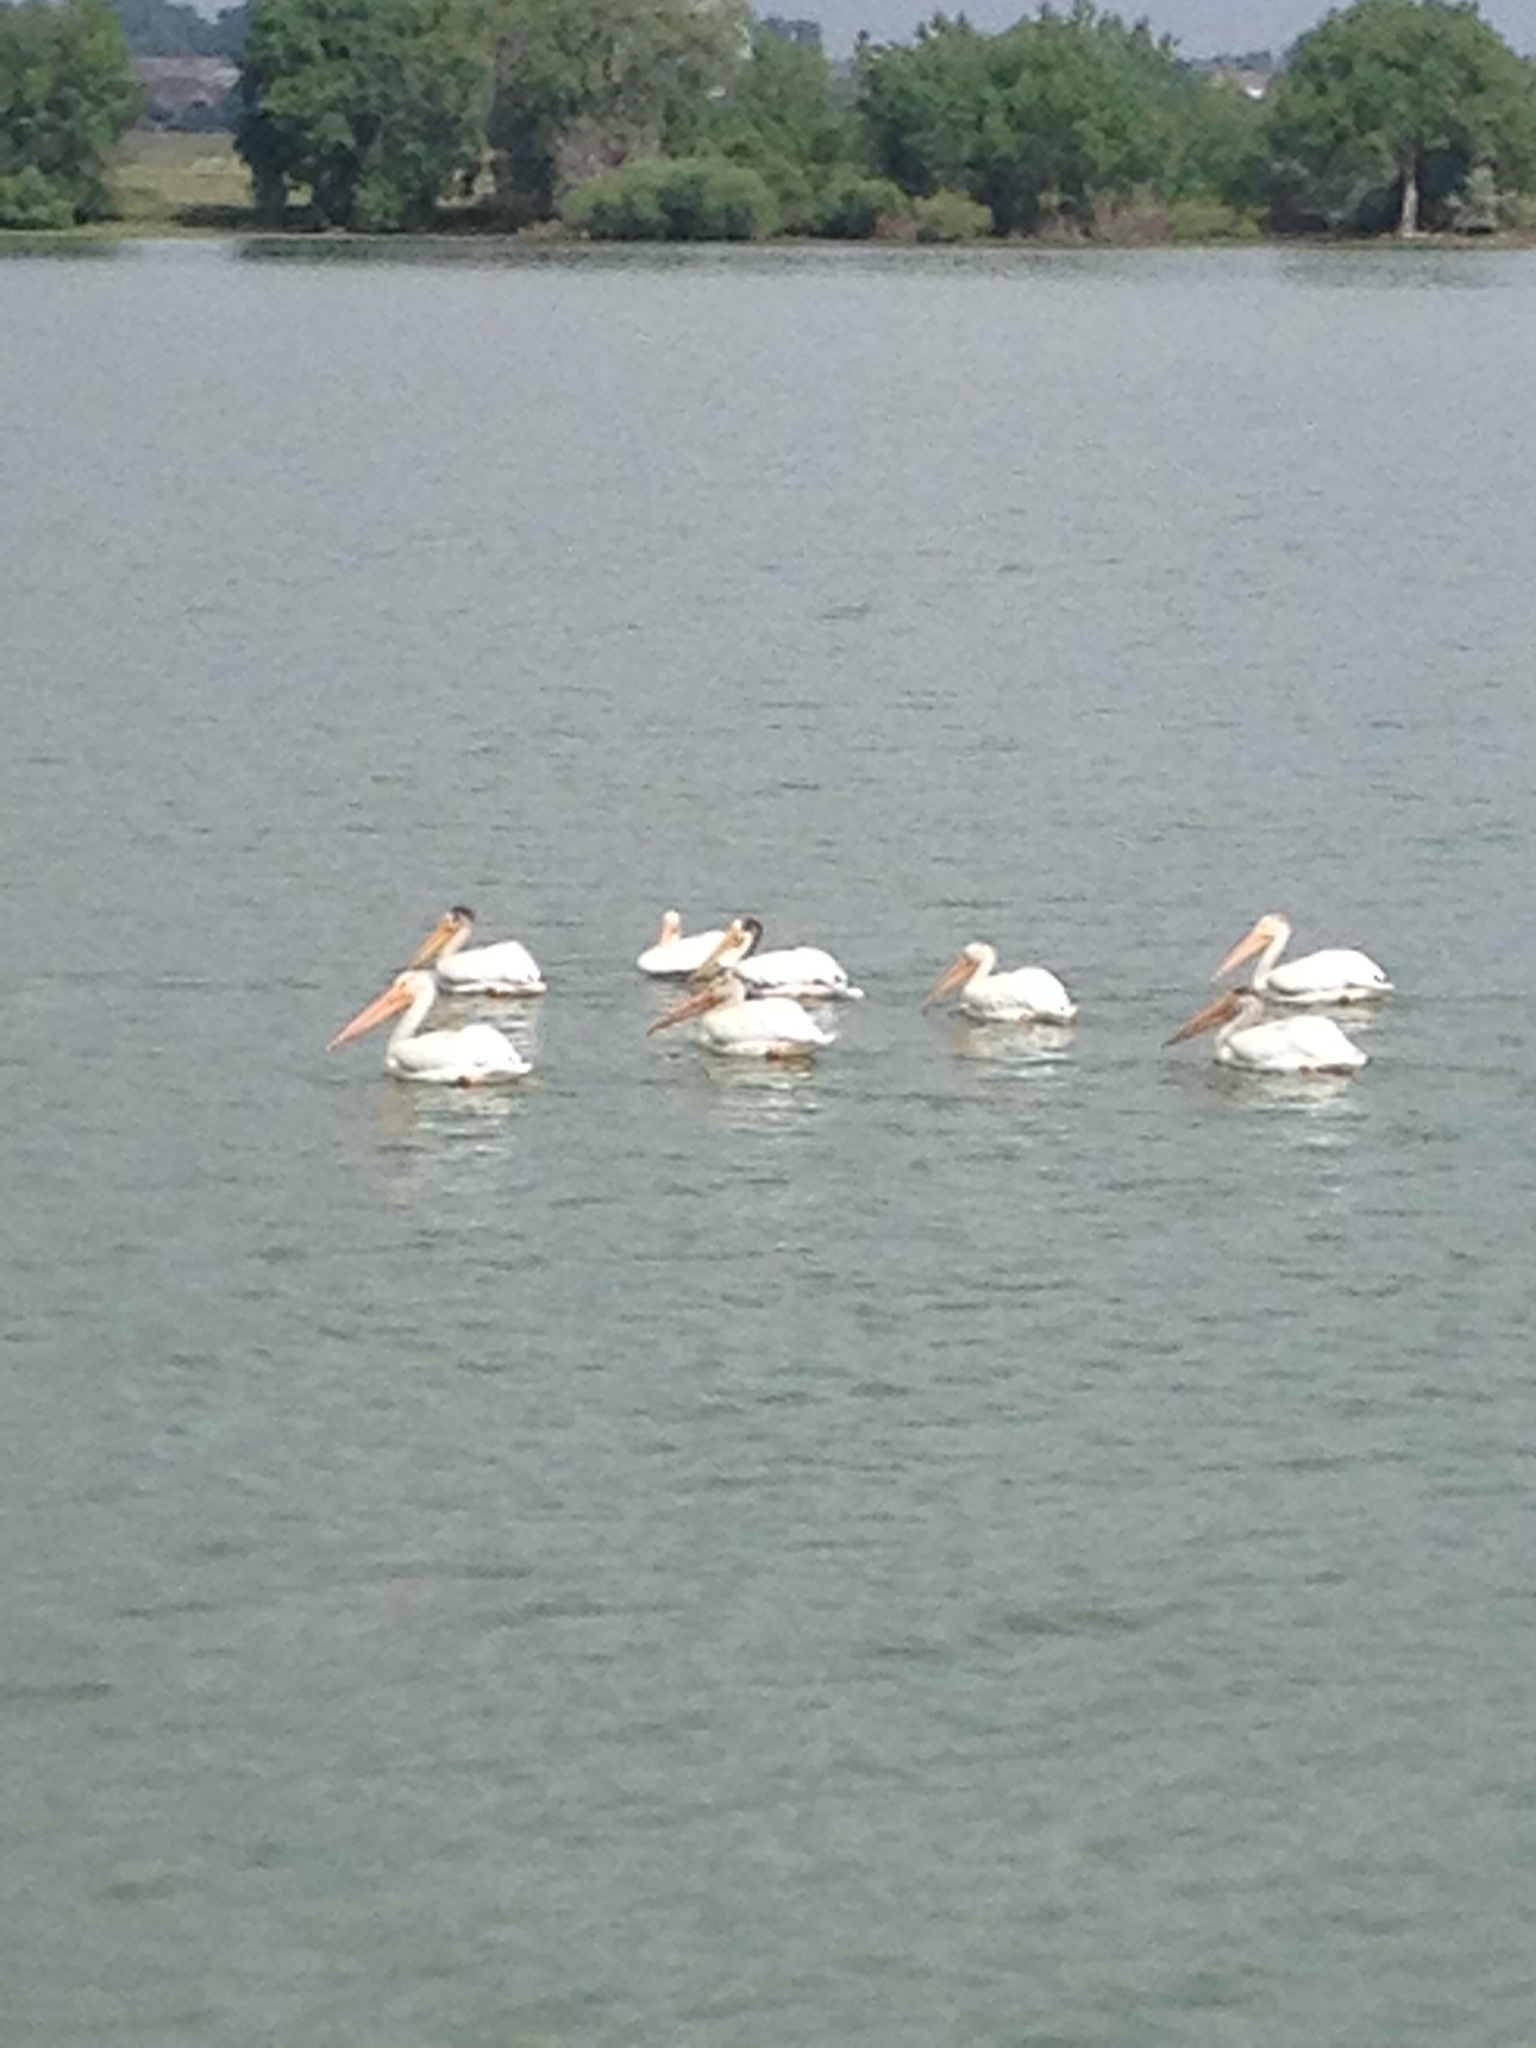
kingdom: Animalia
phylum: Chordata
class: Aves
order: Pelecaniformes
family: Pelecanidae
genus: Pelecanus
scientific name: Pelecanus erythrorhynchos
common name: American white pelican
